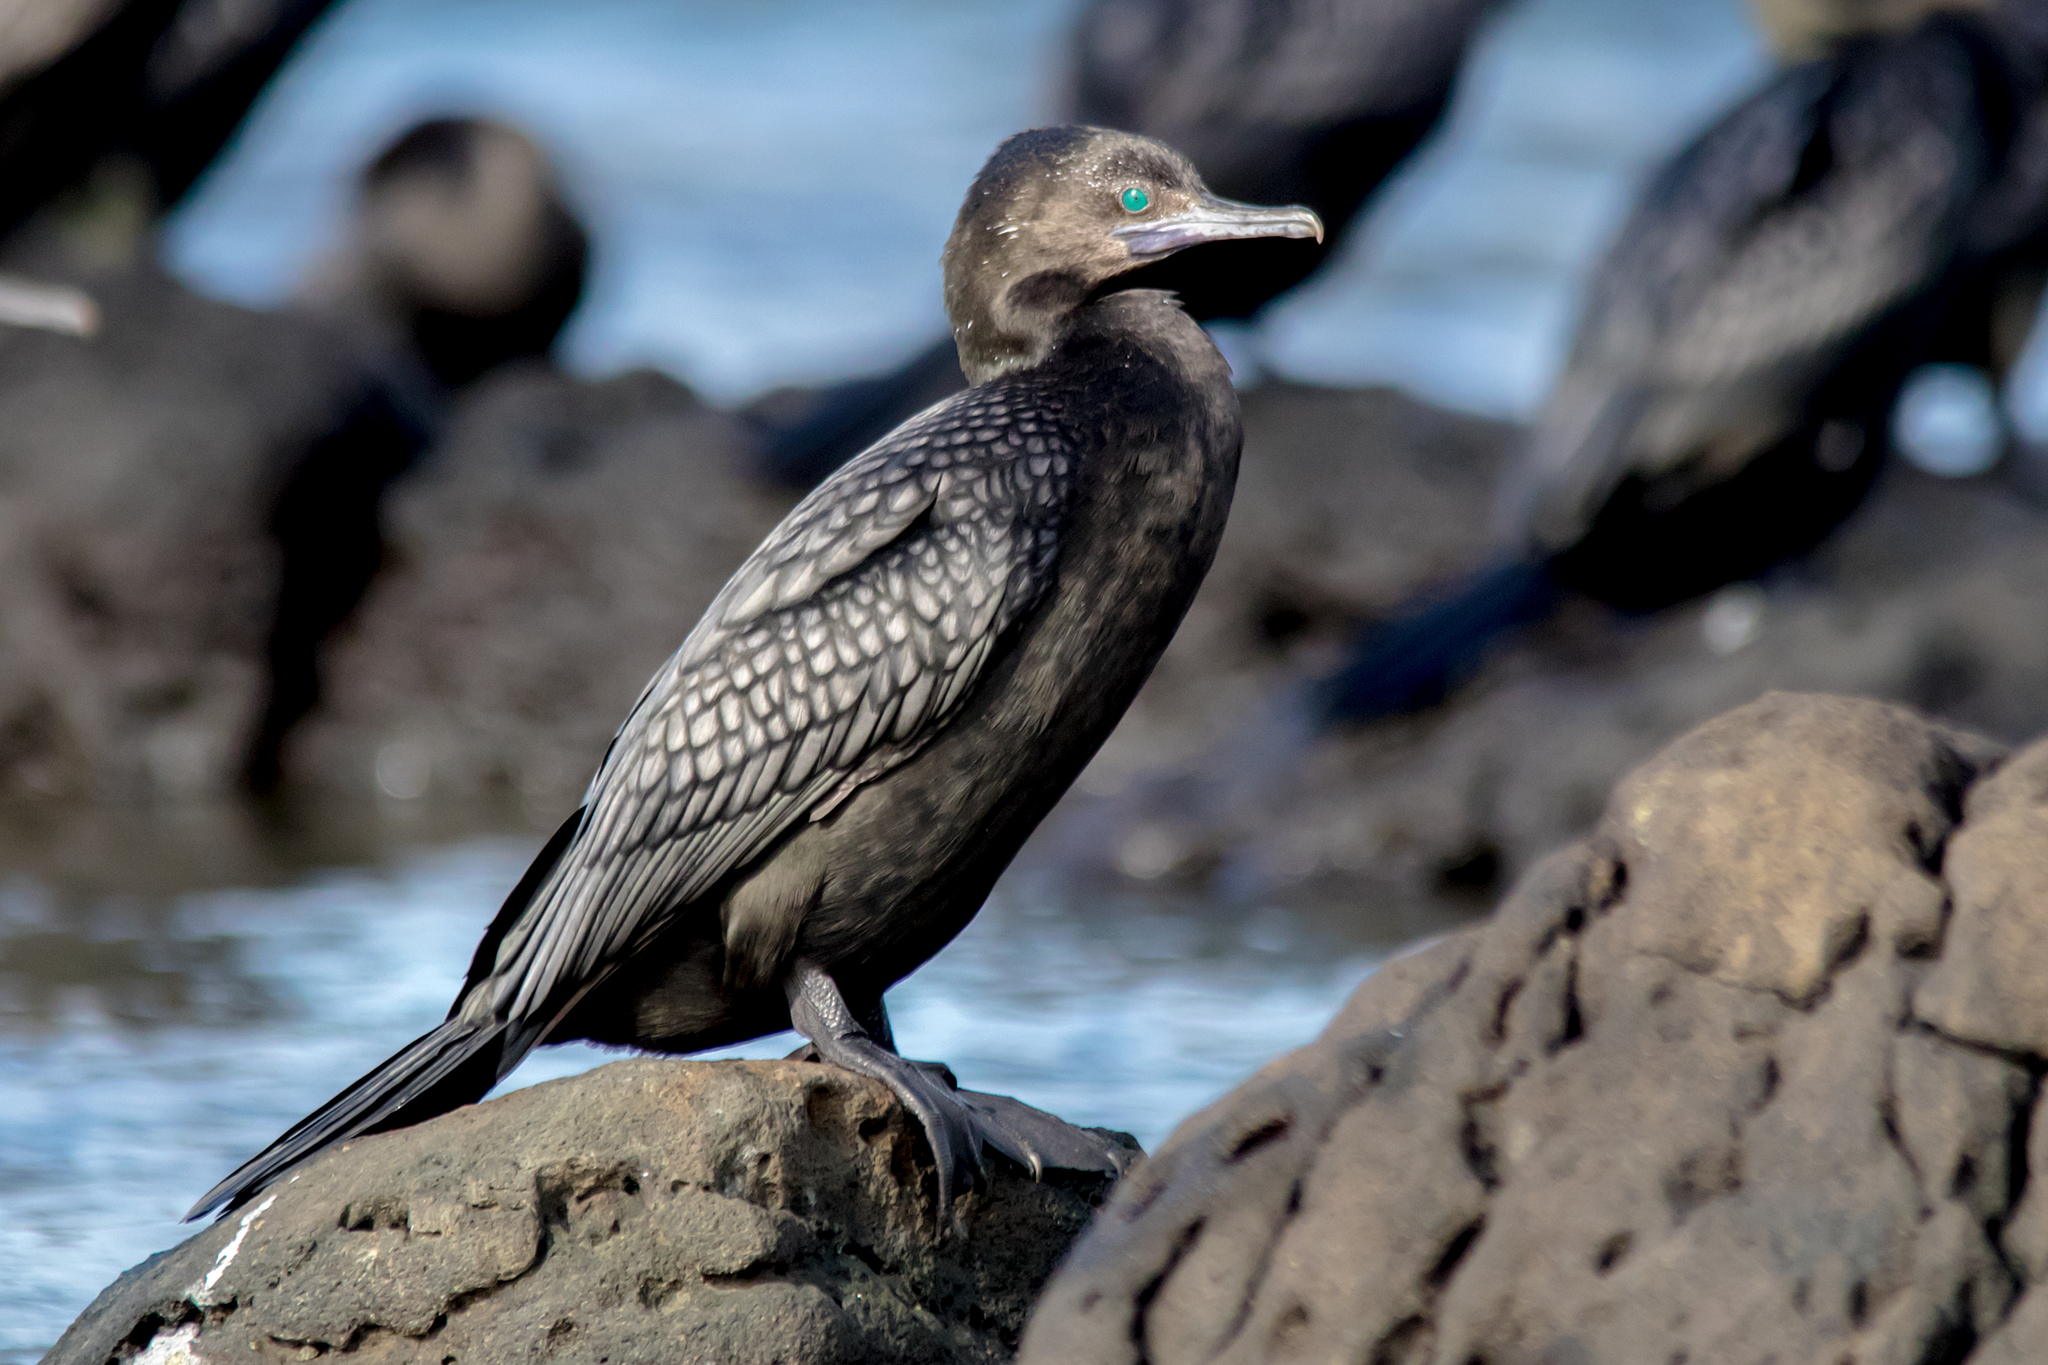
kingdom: Animalia
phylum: Chordata
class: Aves
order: Suliformes
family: Phalacrocoracidae
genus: Phalacrocorax
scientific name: Phalacrocorax sulcirostris
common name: Little black cormorant
